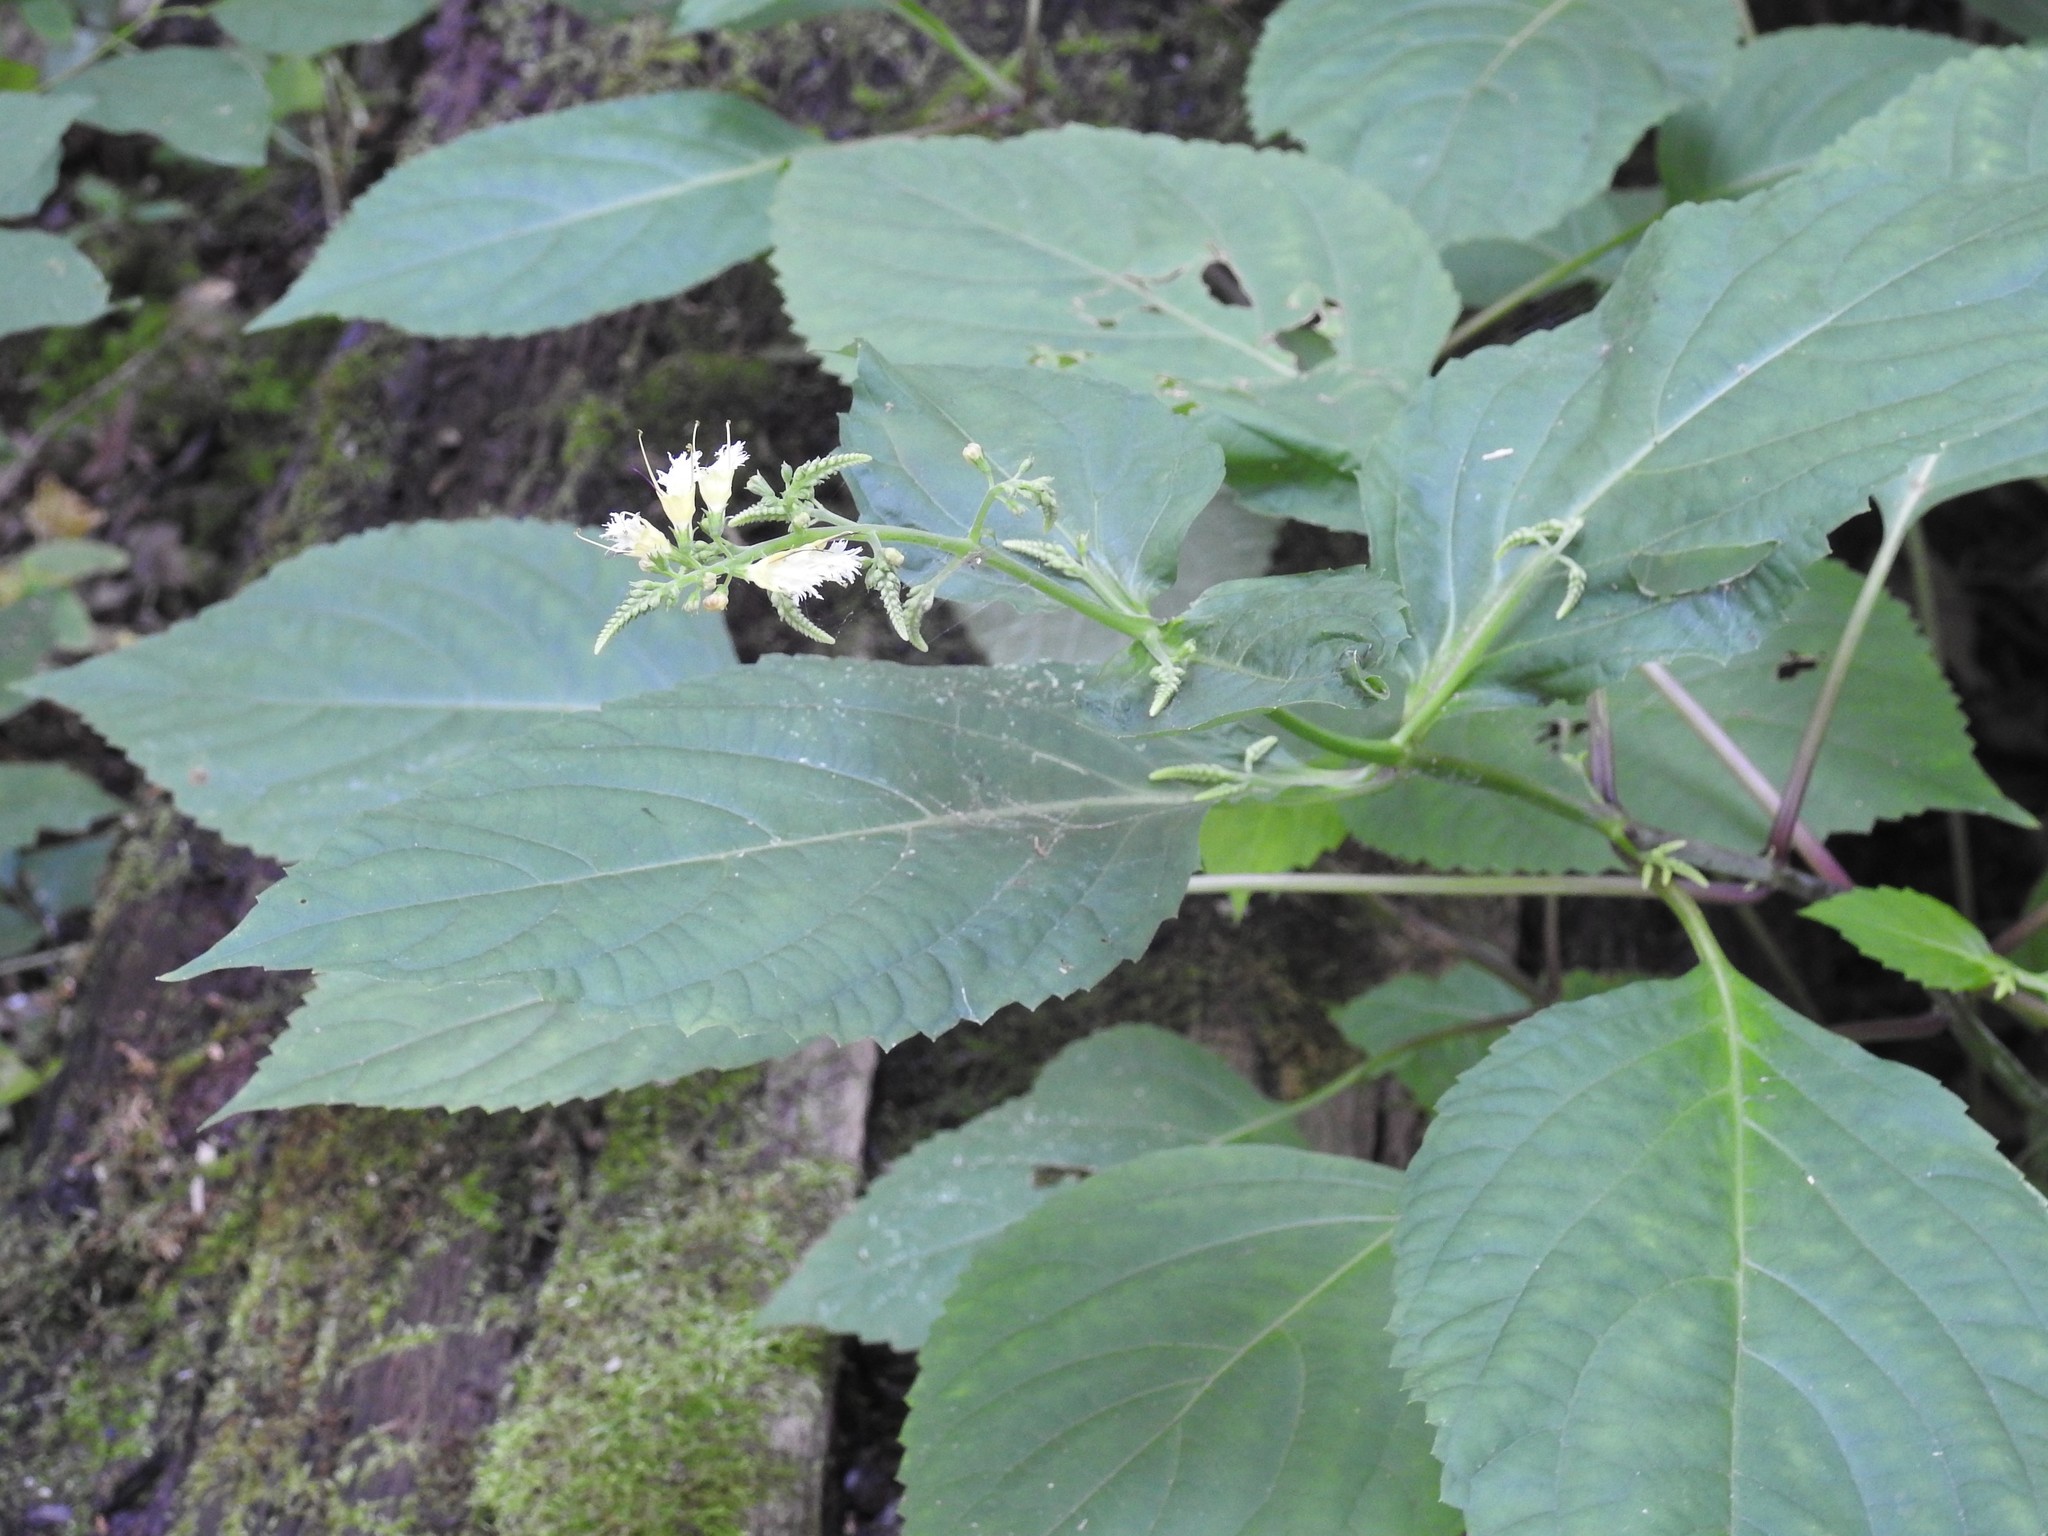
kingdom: Plantae
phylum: Tracheophyta
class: Magnoliopsida
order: Lamiales
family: Lamiaceae
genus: Collinsonia
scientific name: Collinsonia canadensis
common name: Northern horsebalm
